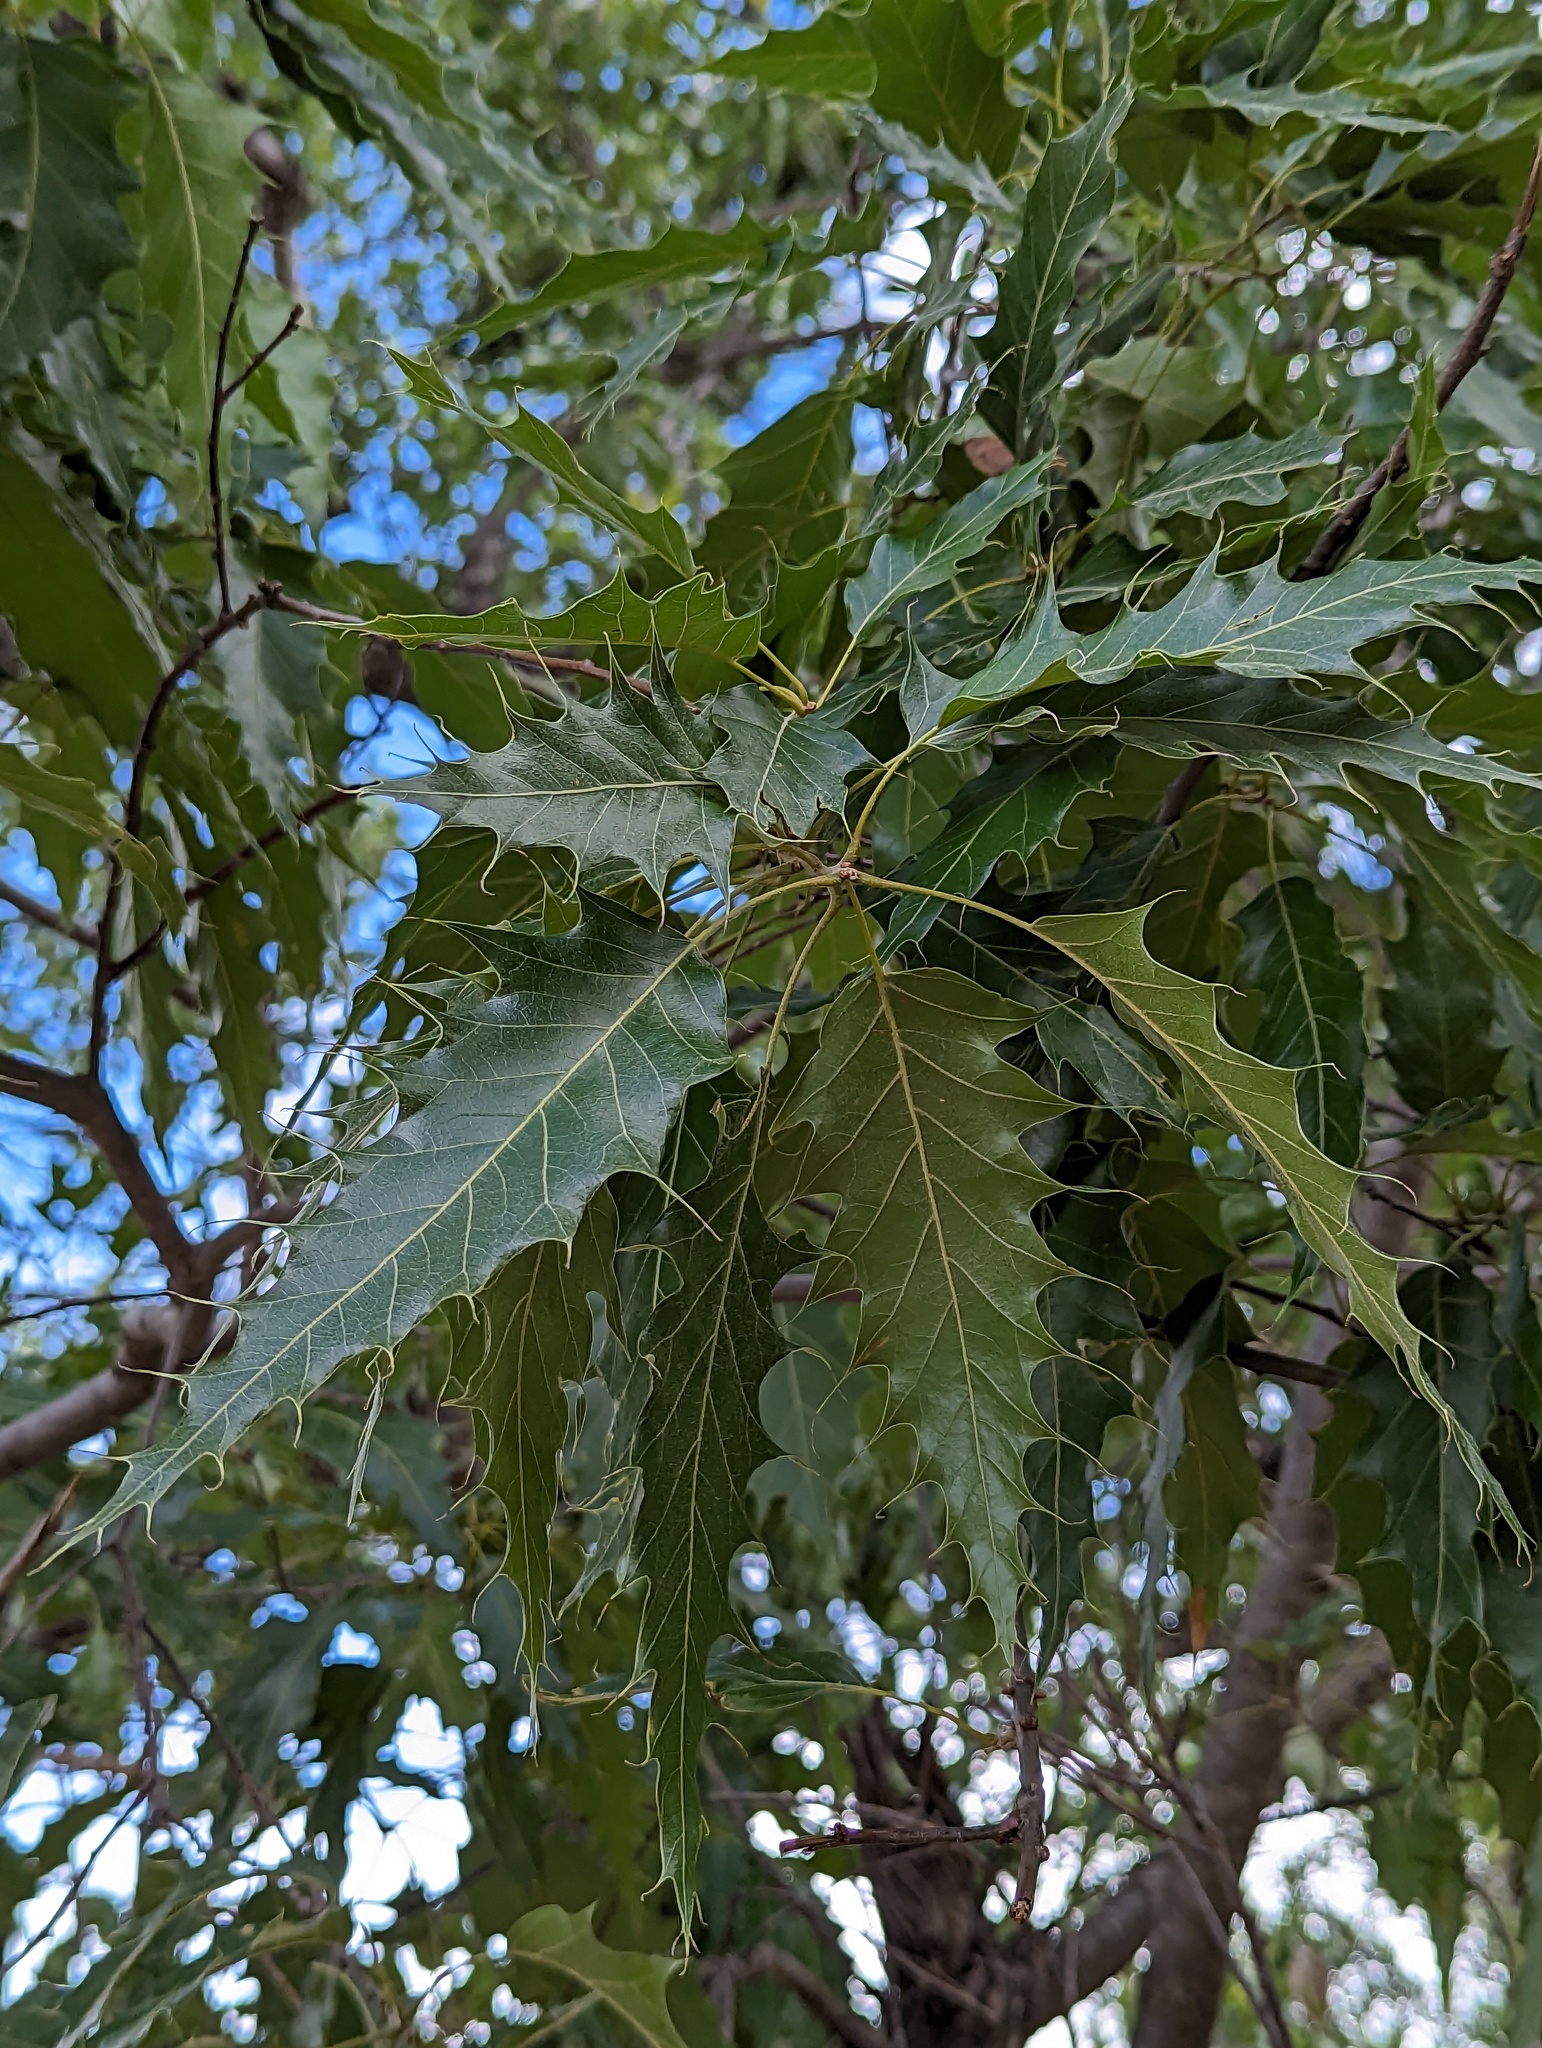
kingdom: Plantae
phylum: Tracheophyta
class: Magnoliopsida
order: Fagales
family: Fagaceae
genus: Quercus
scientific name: Quercus albocincta
